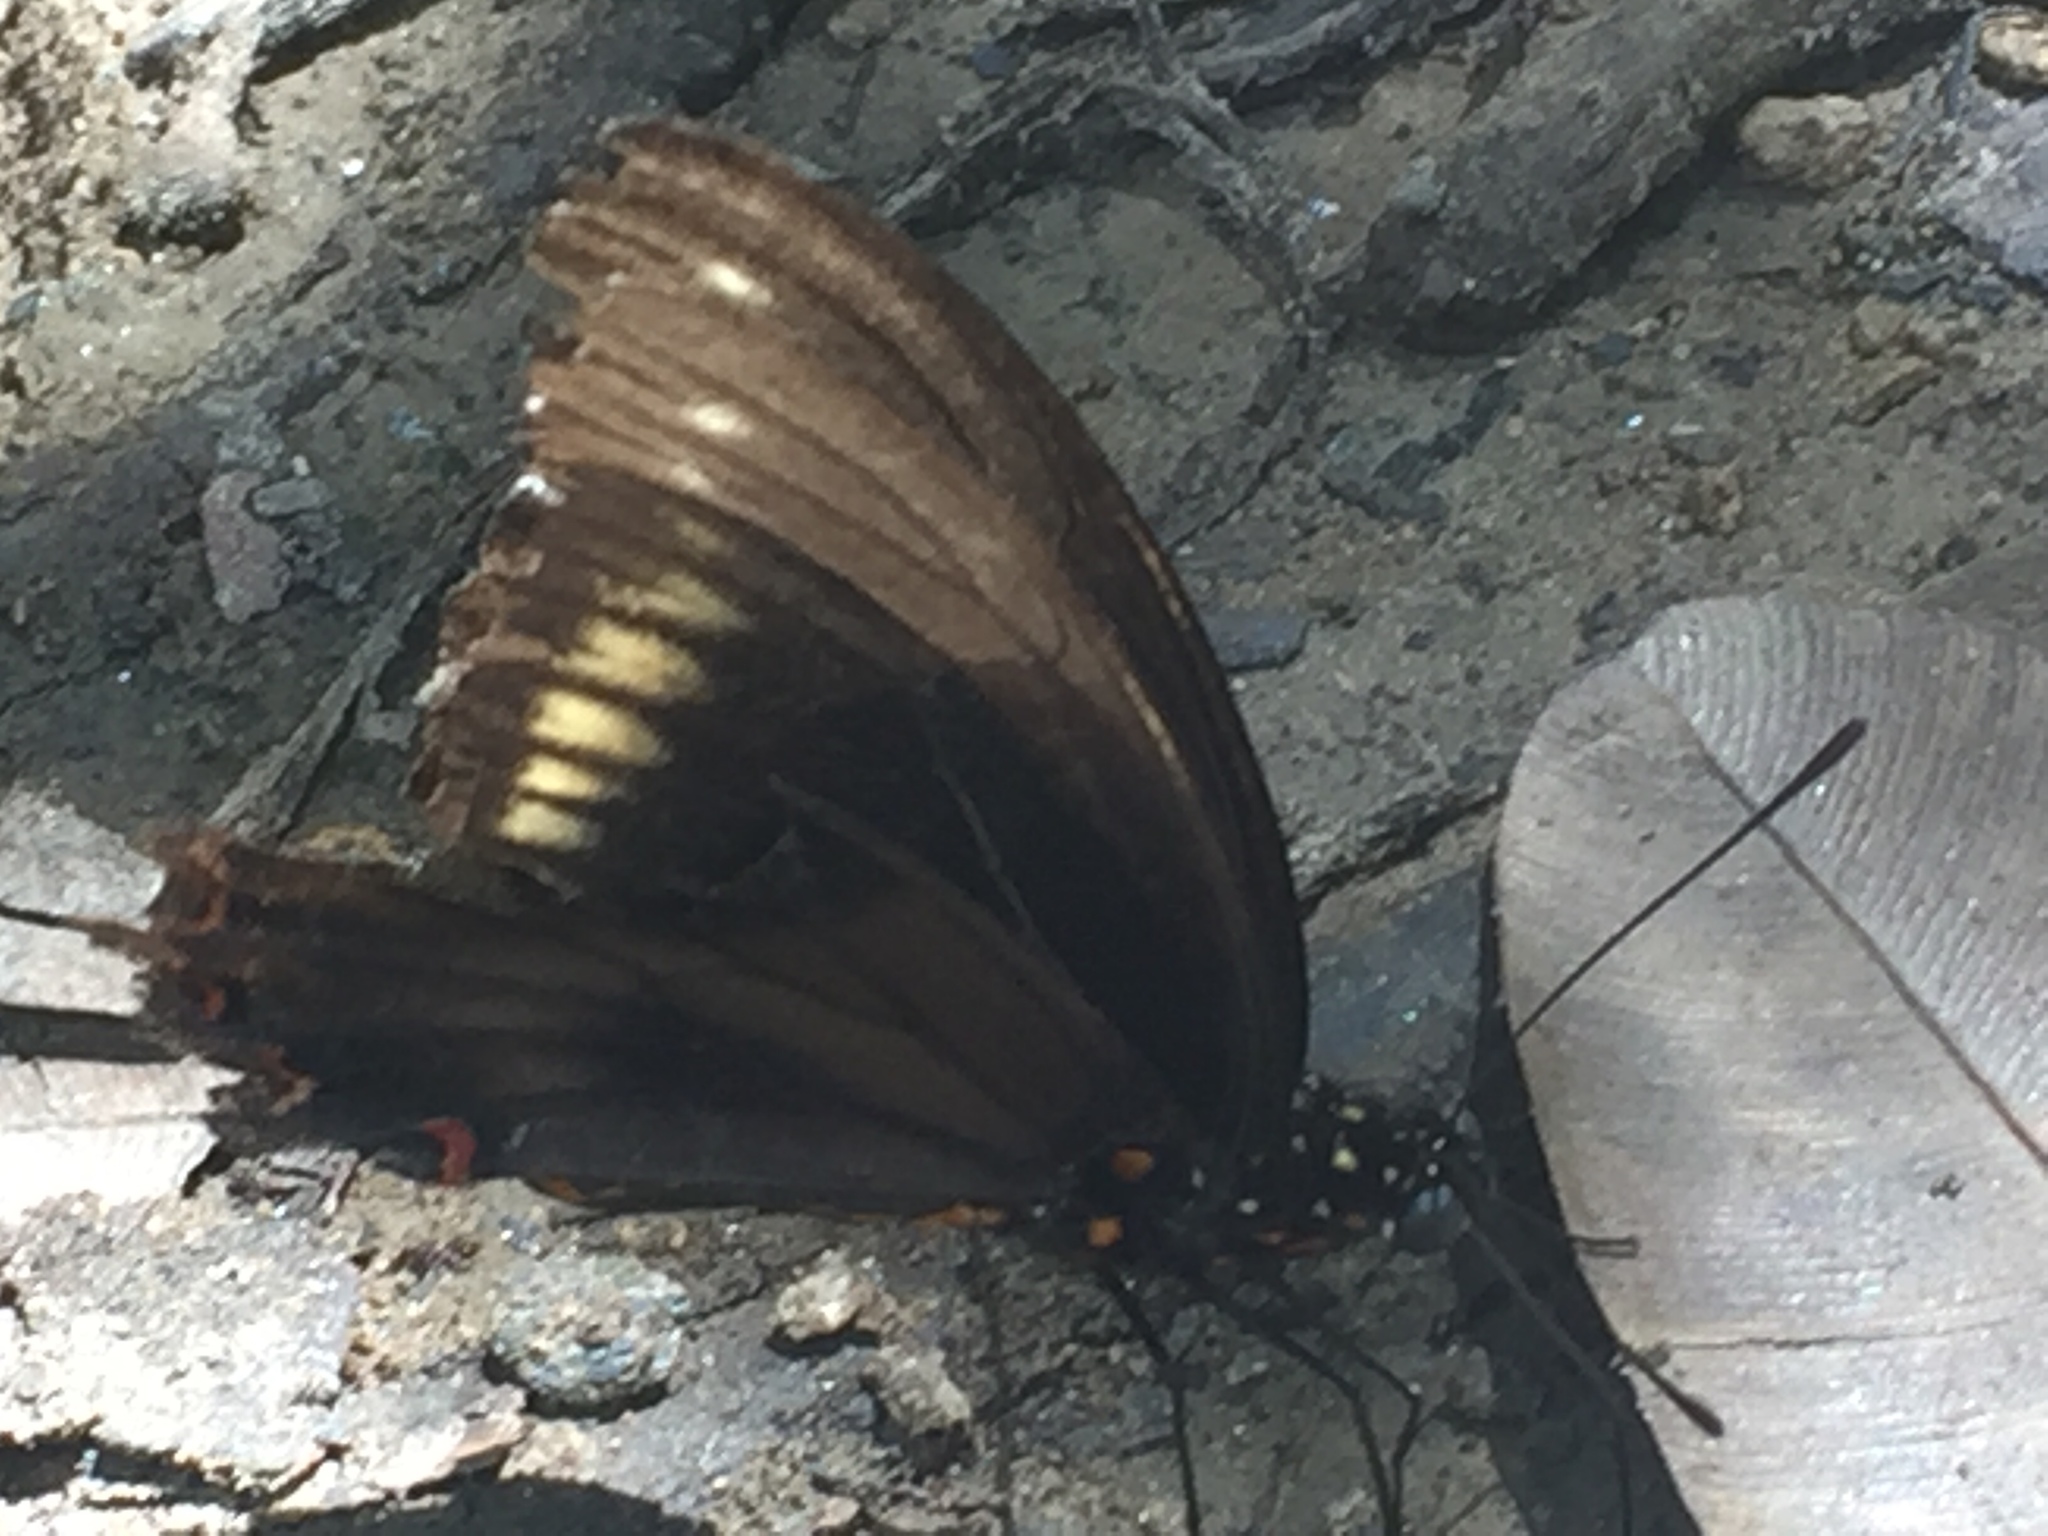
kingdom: Animalia
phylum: Arthropoda
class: Insecta
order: Lepidoptera
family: Papilionidae
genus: Battus
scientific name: Battus polydamas
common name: Polydamas swallowtail
